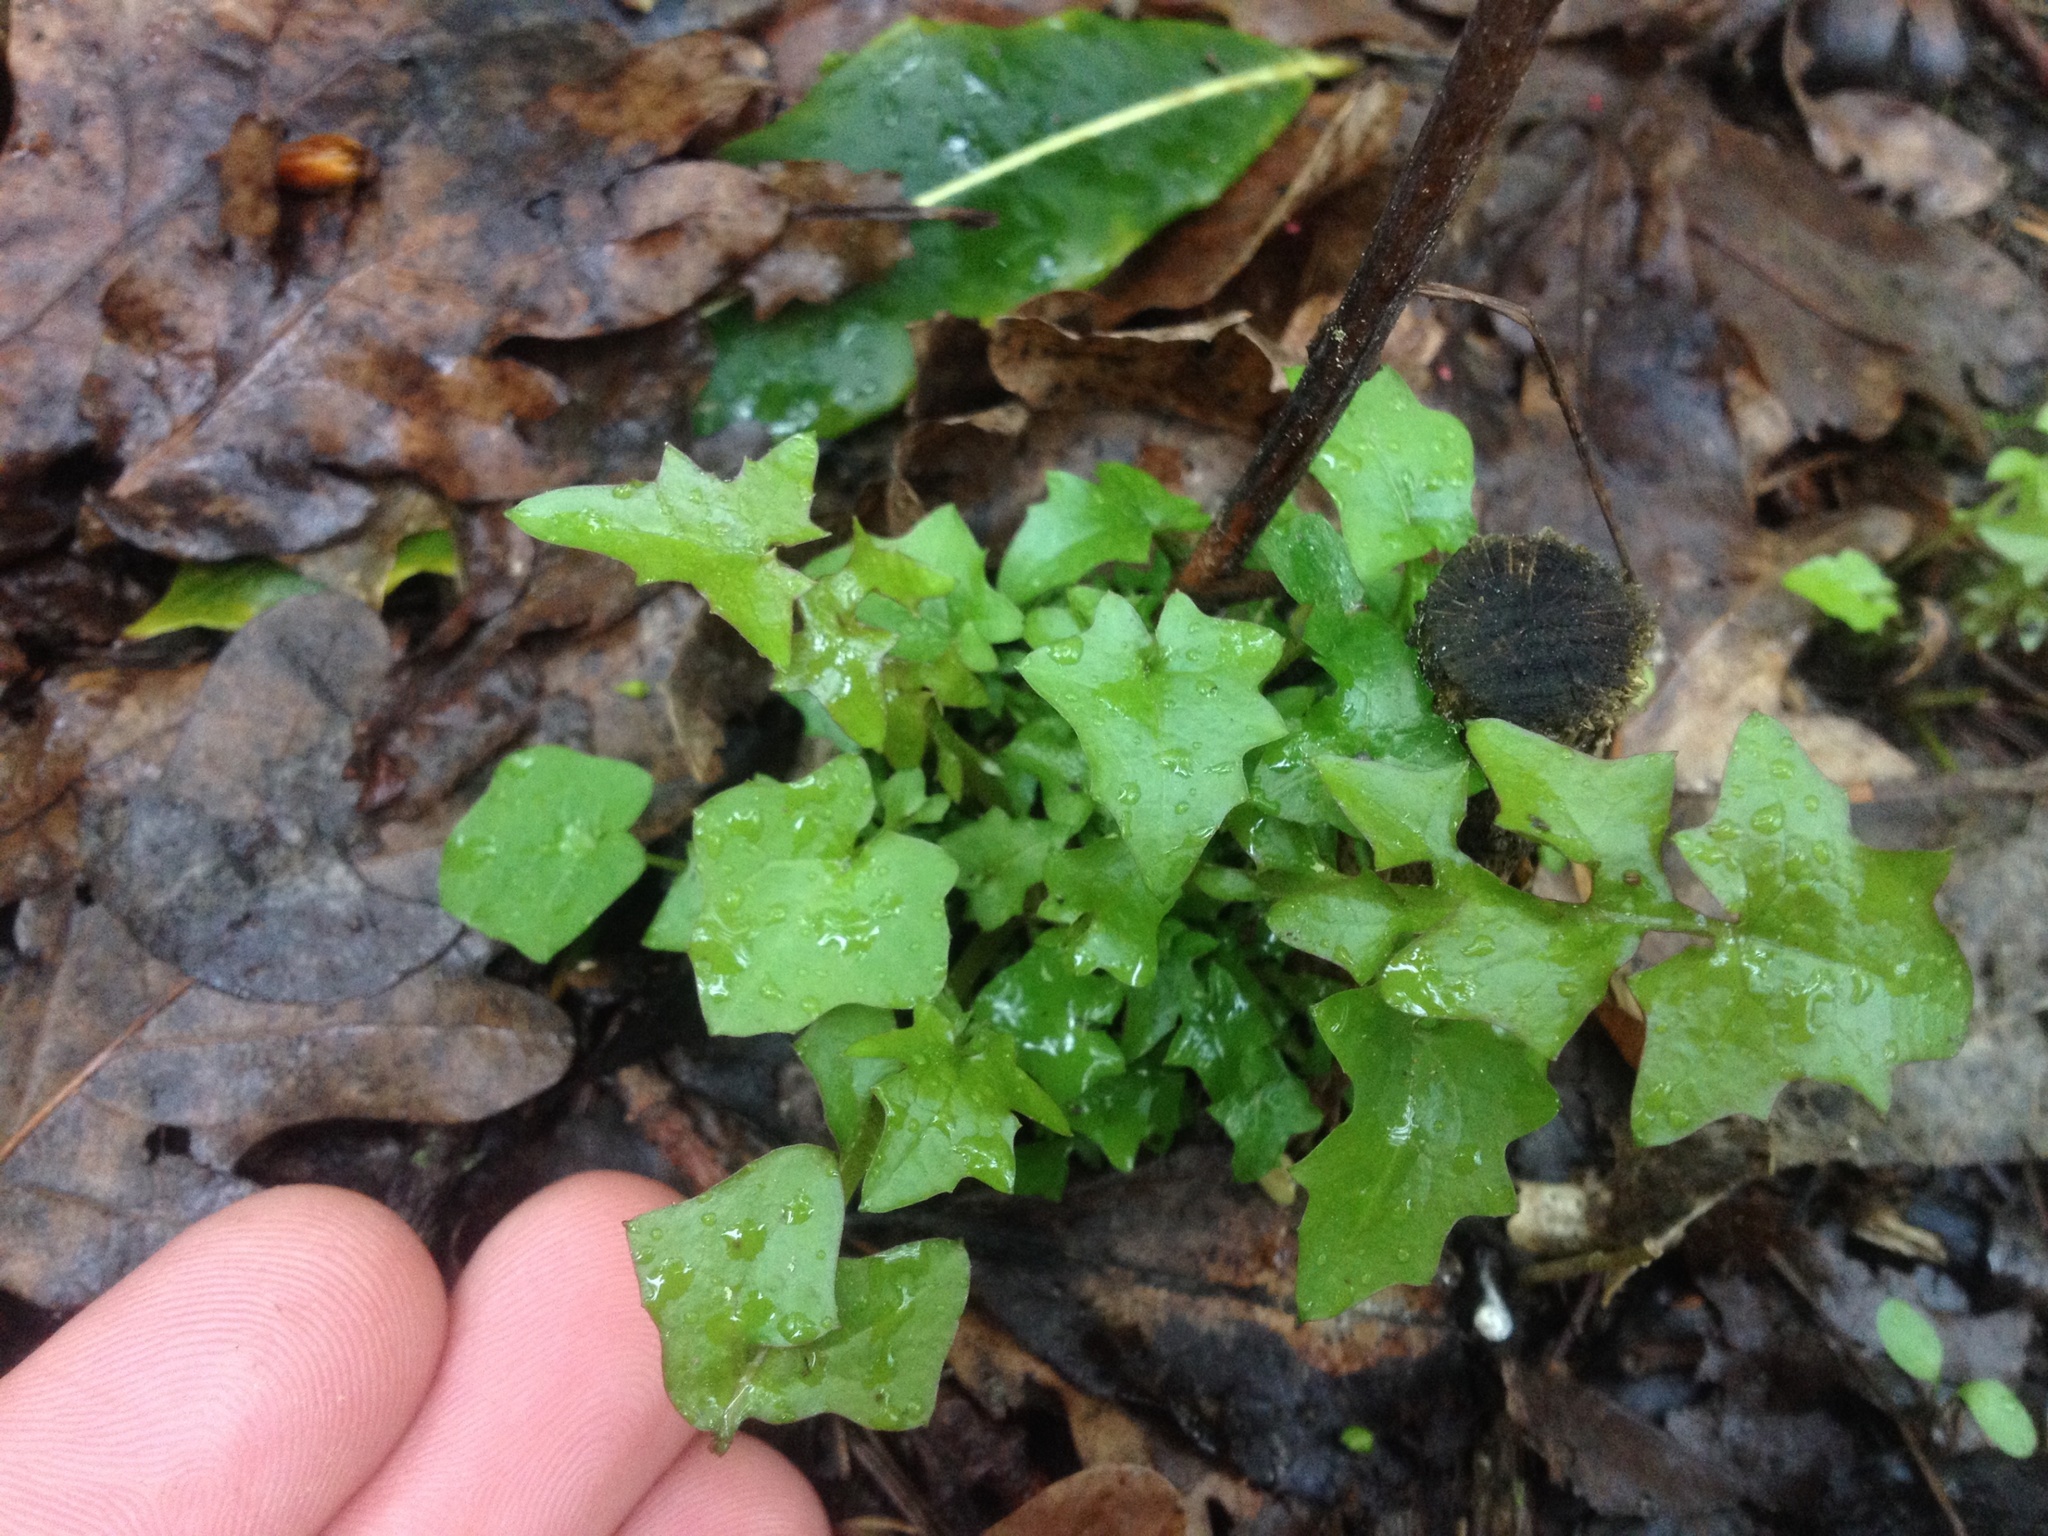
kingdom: Plantae
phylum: Tracheophyta
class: Magnoliopsida
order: Asterales
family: Asteraceae
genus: Mycelis
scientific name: Mycelis muralis
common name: Wall lettuce
